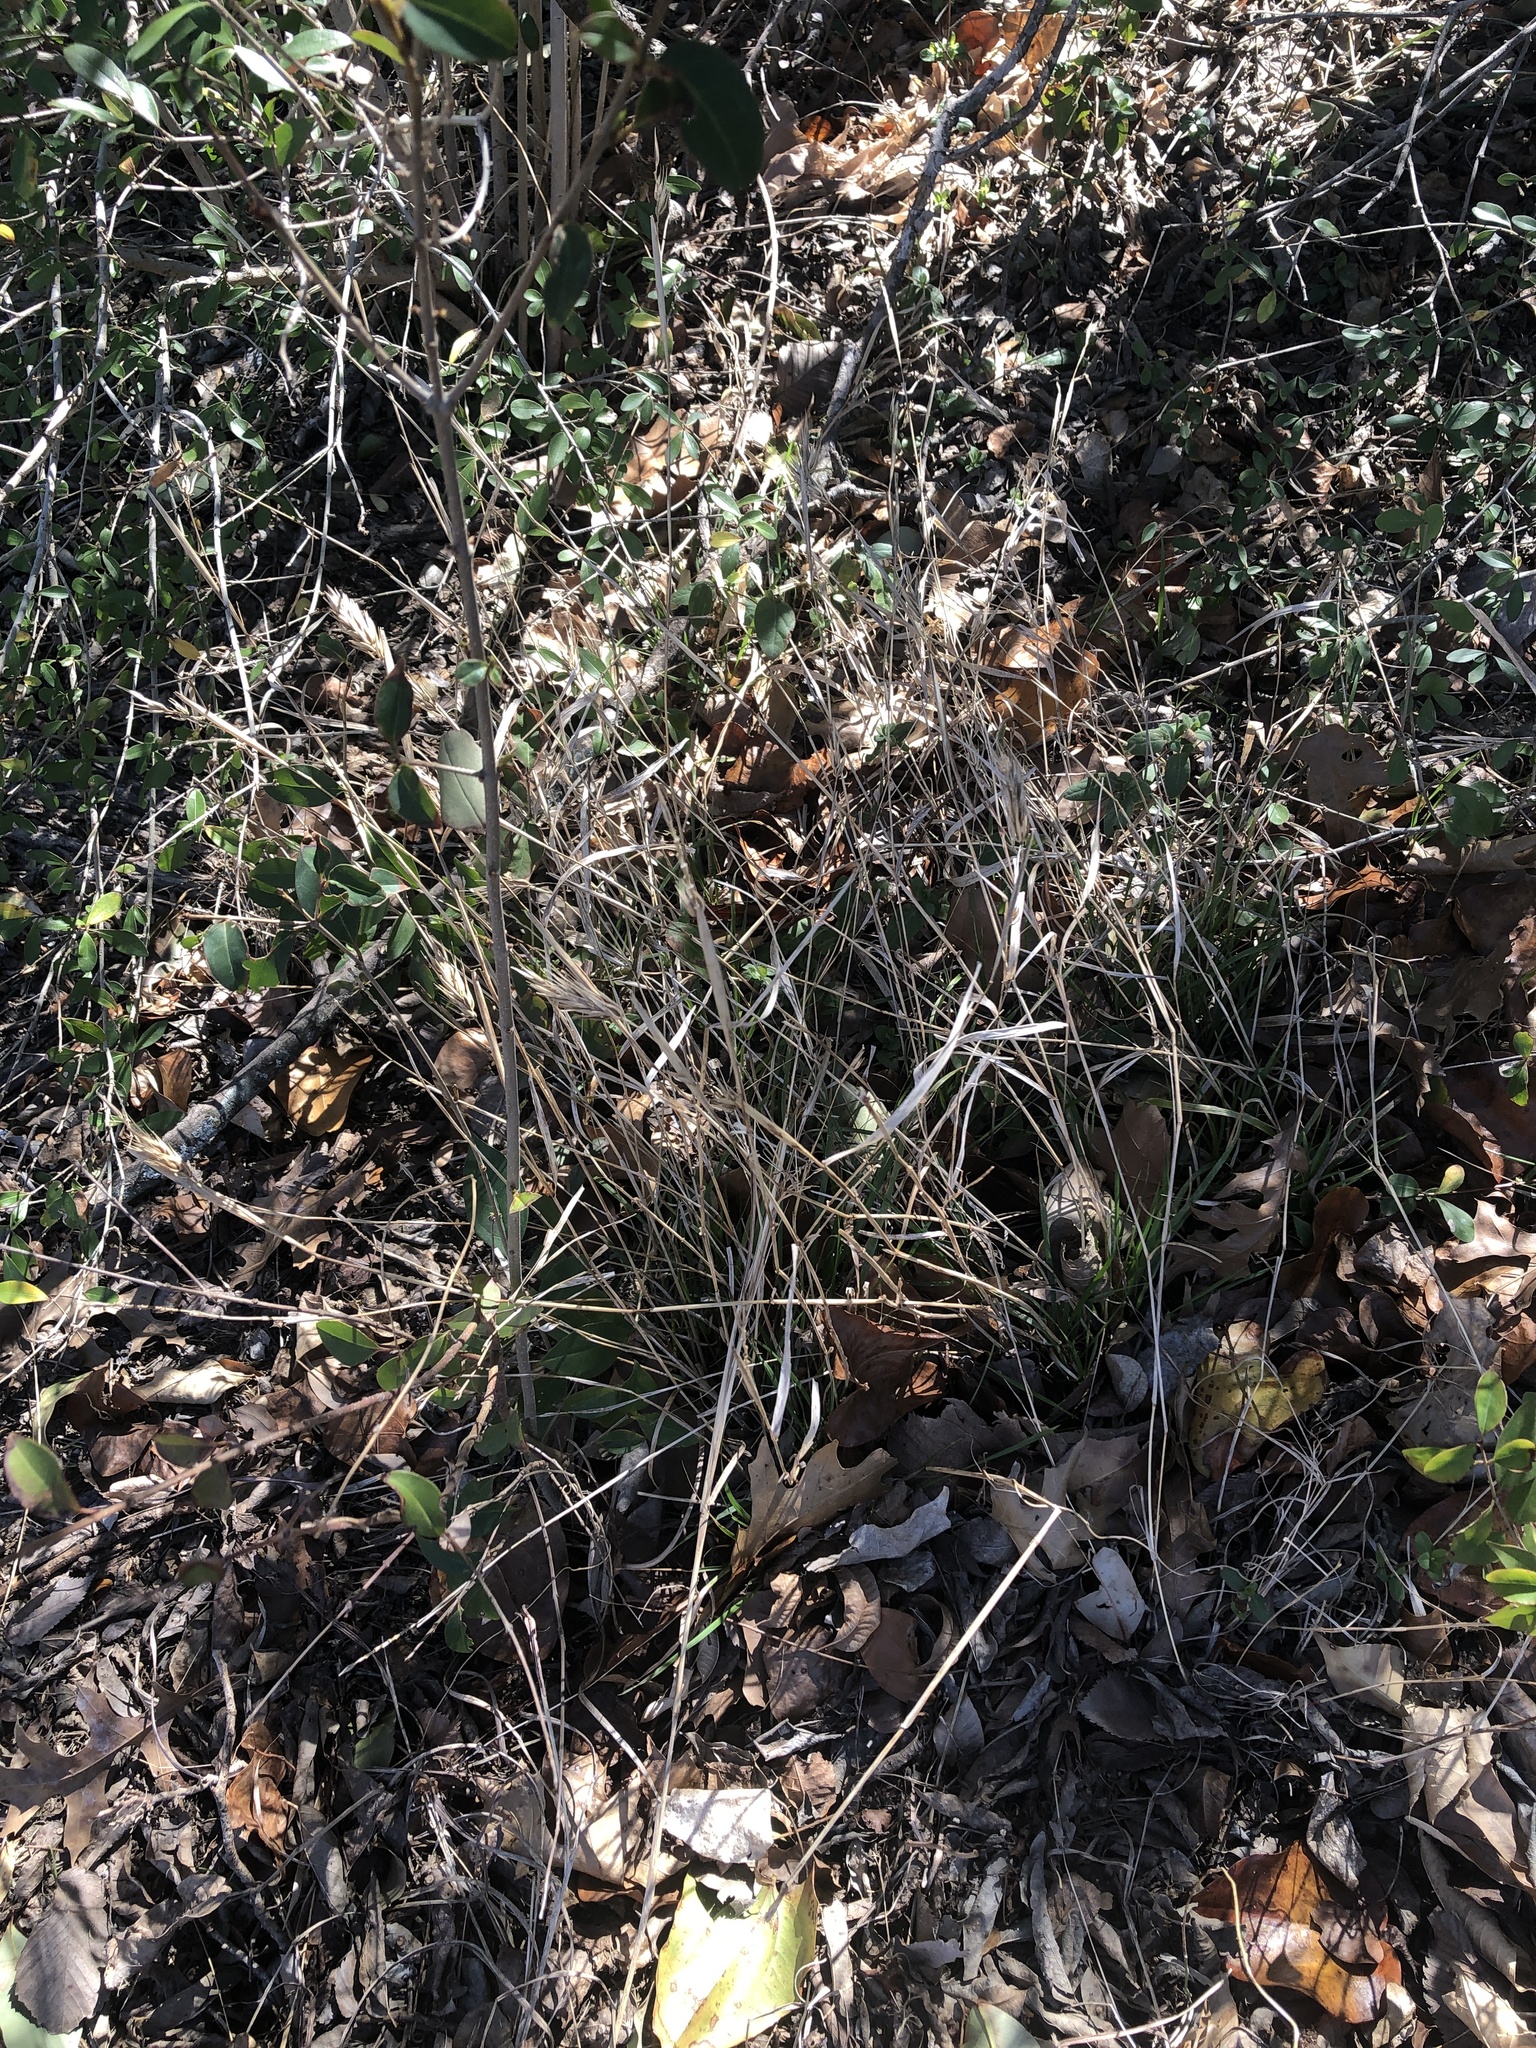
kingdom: Plantae
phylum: Tracheophyta
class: Liliopsida
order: Poales
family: Poaceae
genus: Elymus
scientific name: Elymus virginicus
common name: Common eastern wildrye
